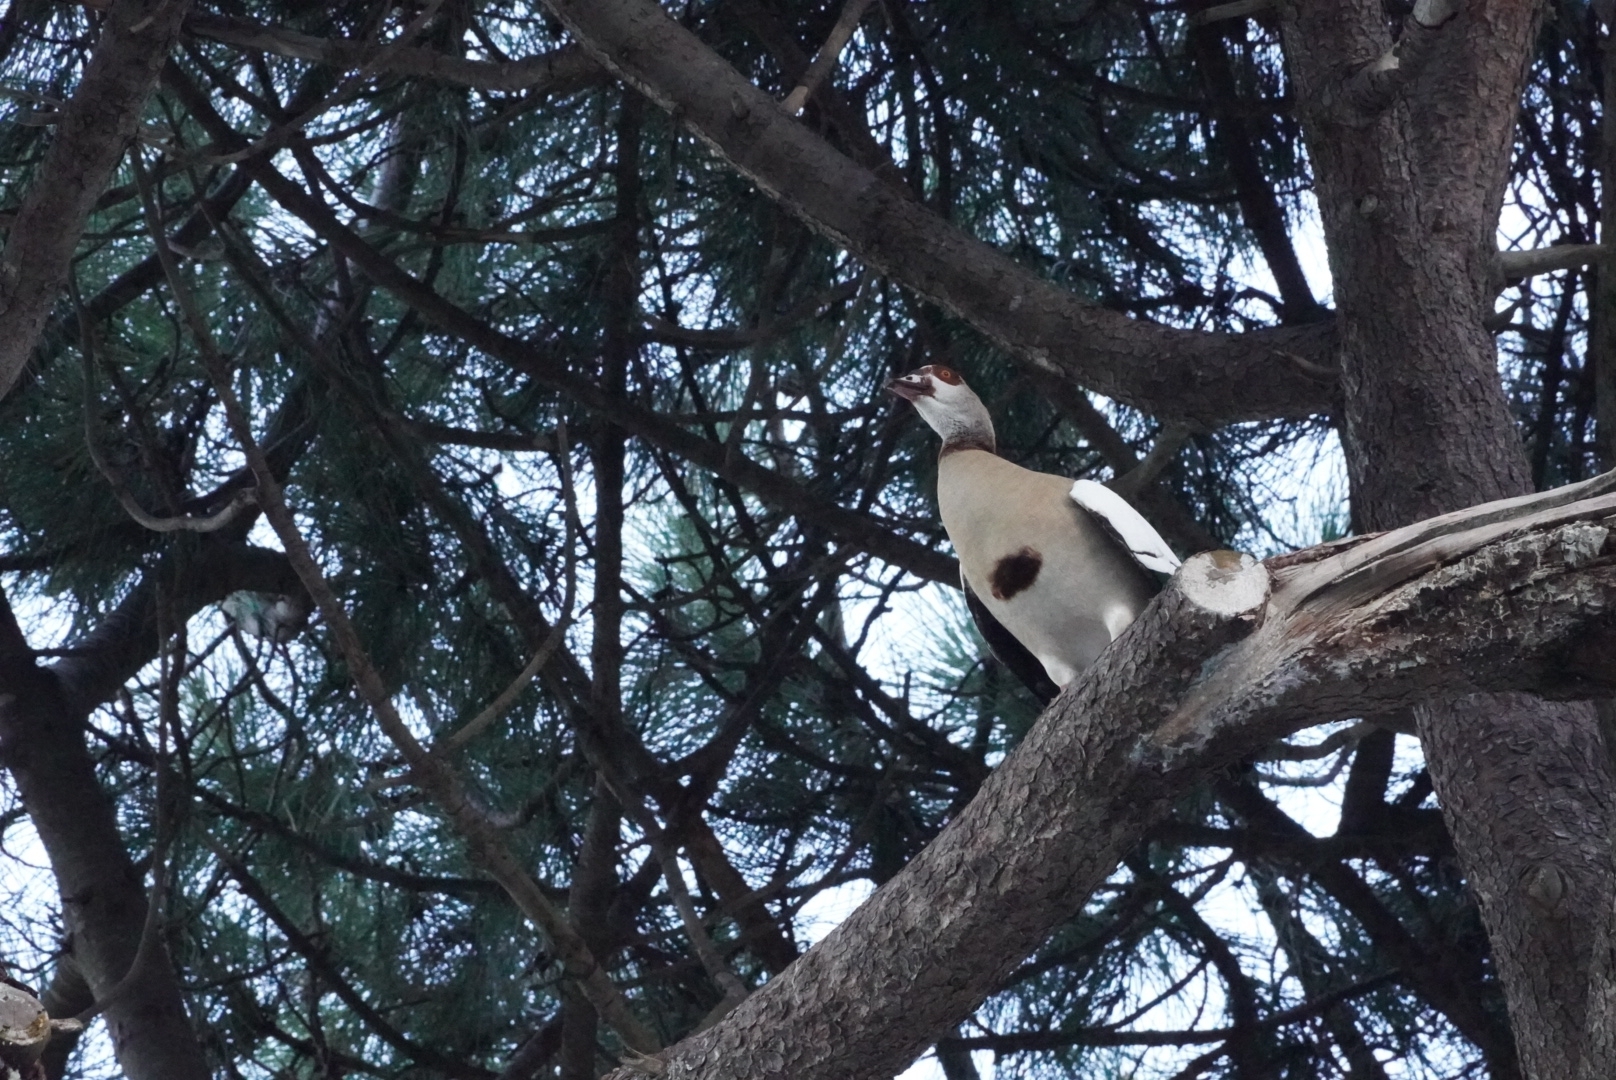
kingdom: Animalia
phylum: Chordata
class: Aves
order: Anseriformes
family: Anatidae
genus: Alopochen
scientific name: Alopochen aegyptiaca
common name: Egyptian goose
